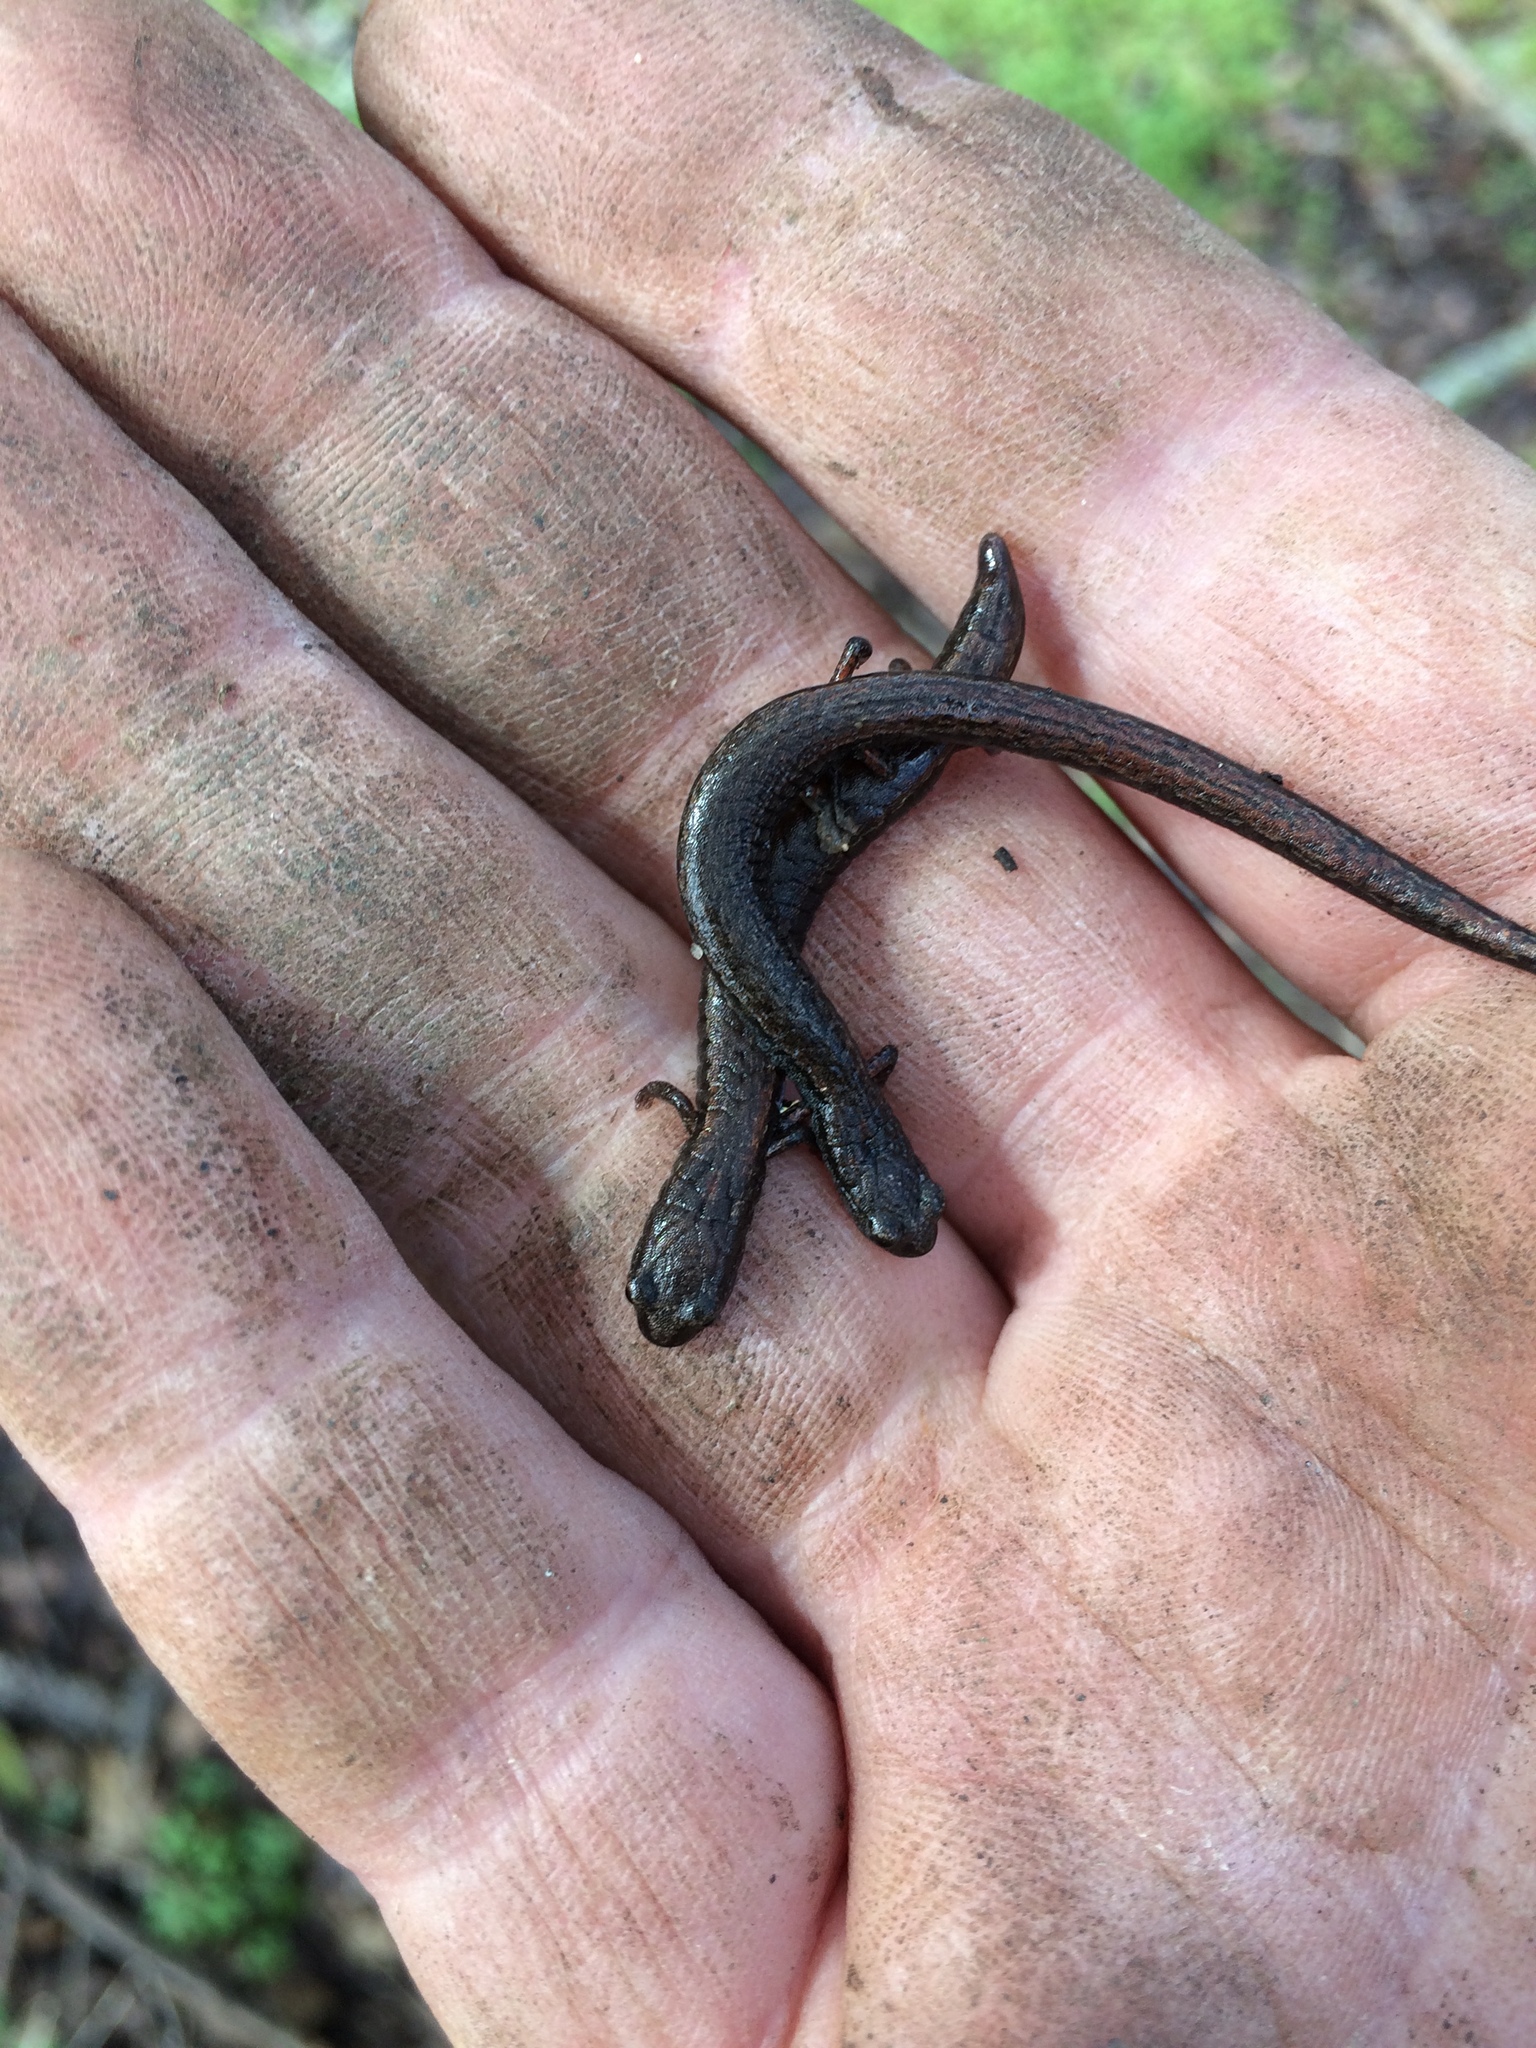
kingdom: Animalia
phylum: Chordata
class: Amphibia
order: Caudata
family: Plethodontidae
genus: Batrachoseps
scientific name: Batrachoseps attenuatus
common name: California slender salamander
